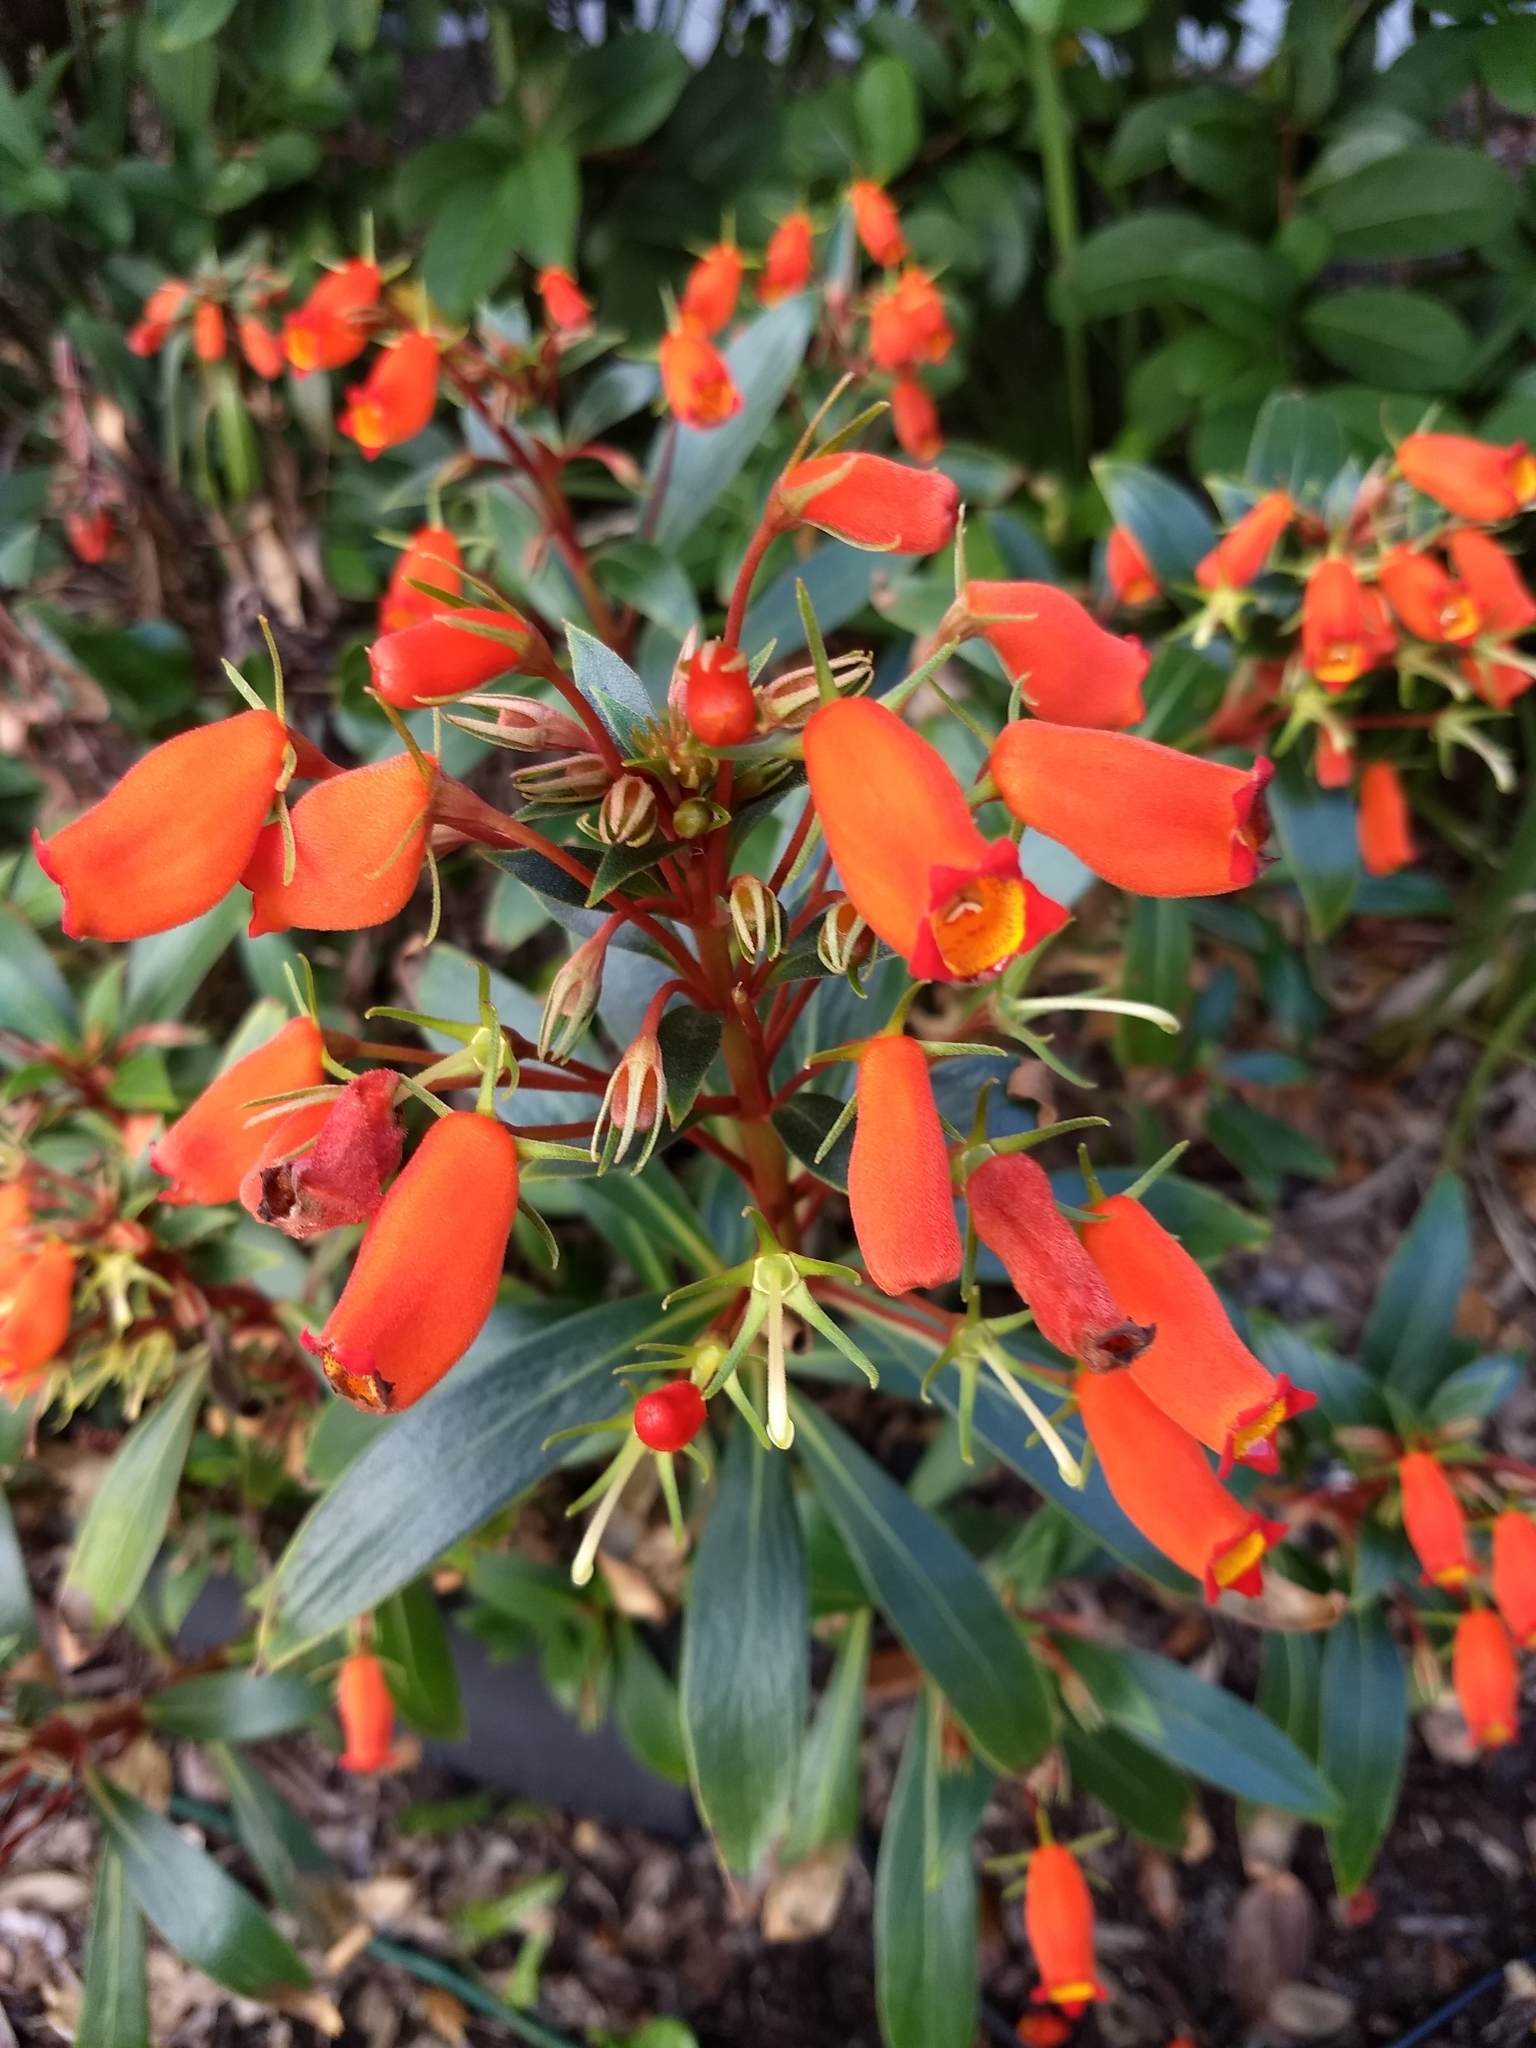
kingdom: Plantae
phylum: Tracheophyta
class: Magnoliopsida
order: Lamiales
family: Gesneriaceae
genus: Seemannia
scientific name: Seemannia sylvatica
